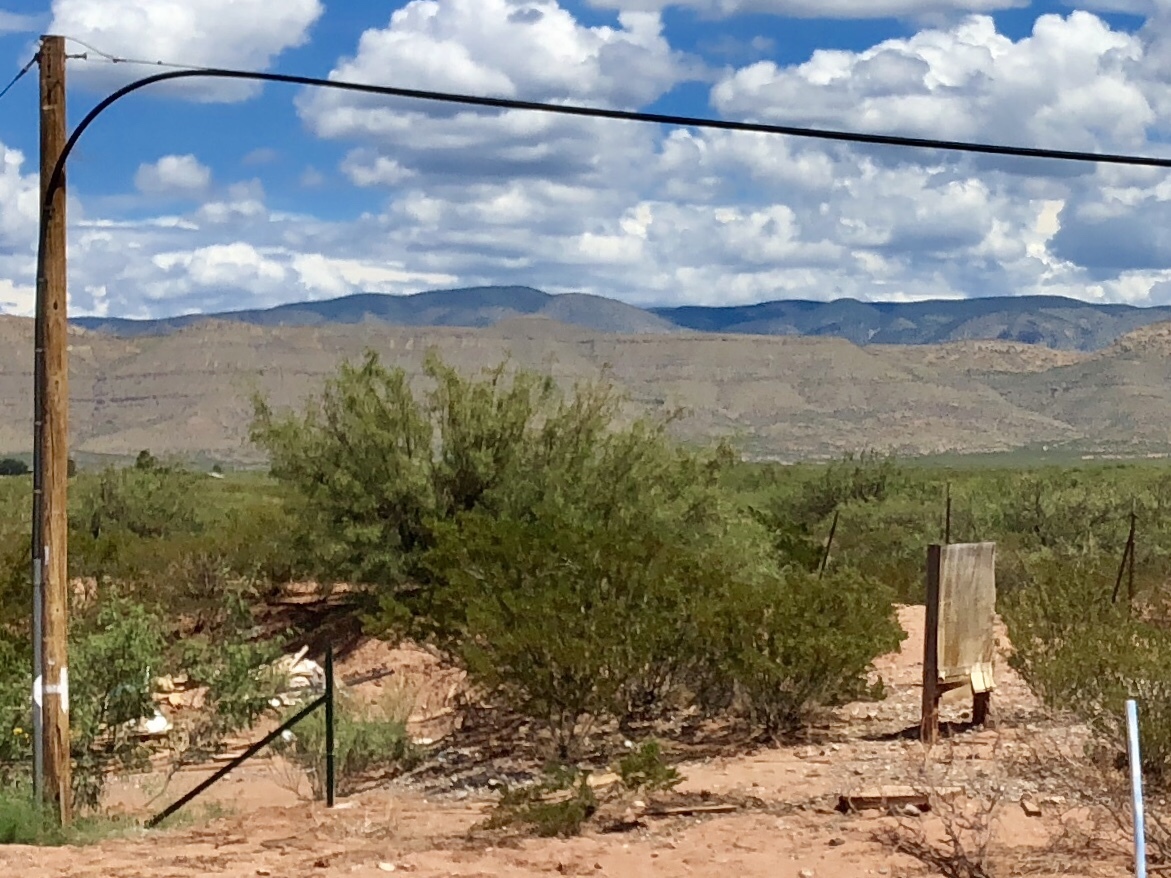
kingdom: Plantae
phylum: Tracheophyta
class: Magnoliopsida
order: Zygophyllales
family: Zygophyllaceae
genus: Larrea
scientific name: Larrea tridentata
